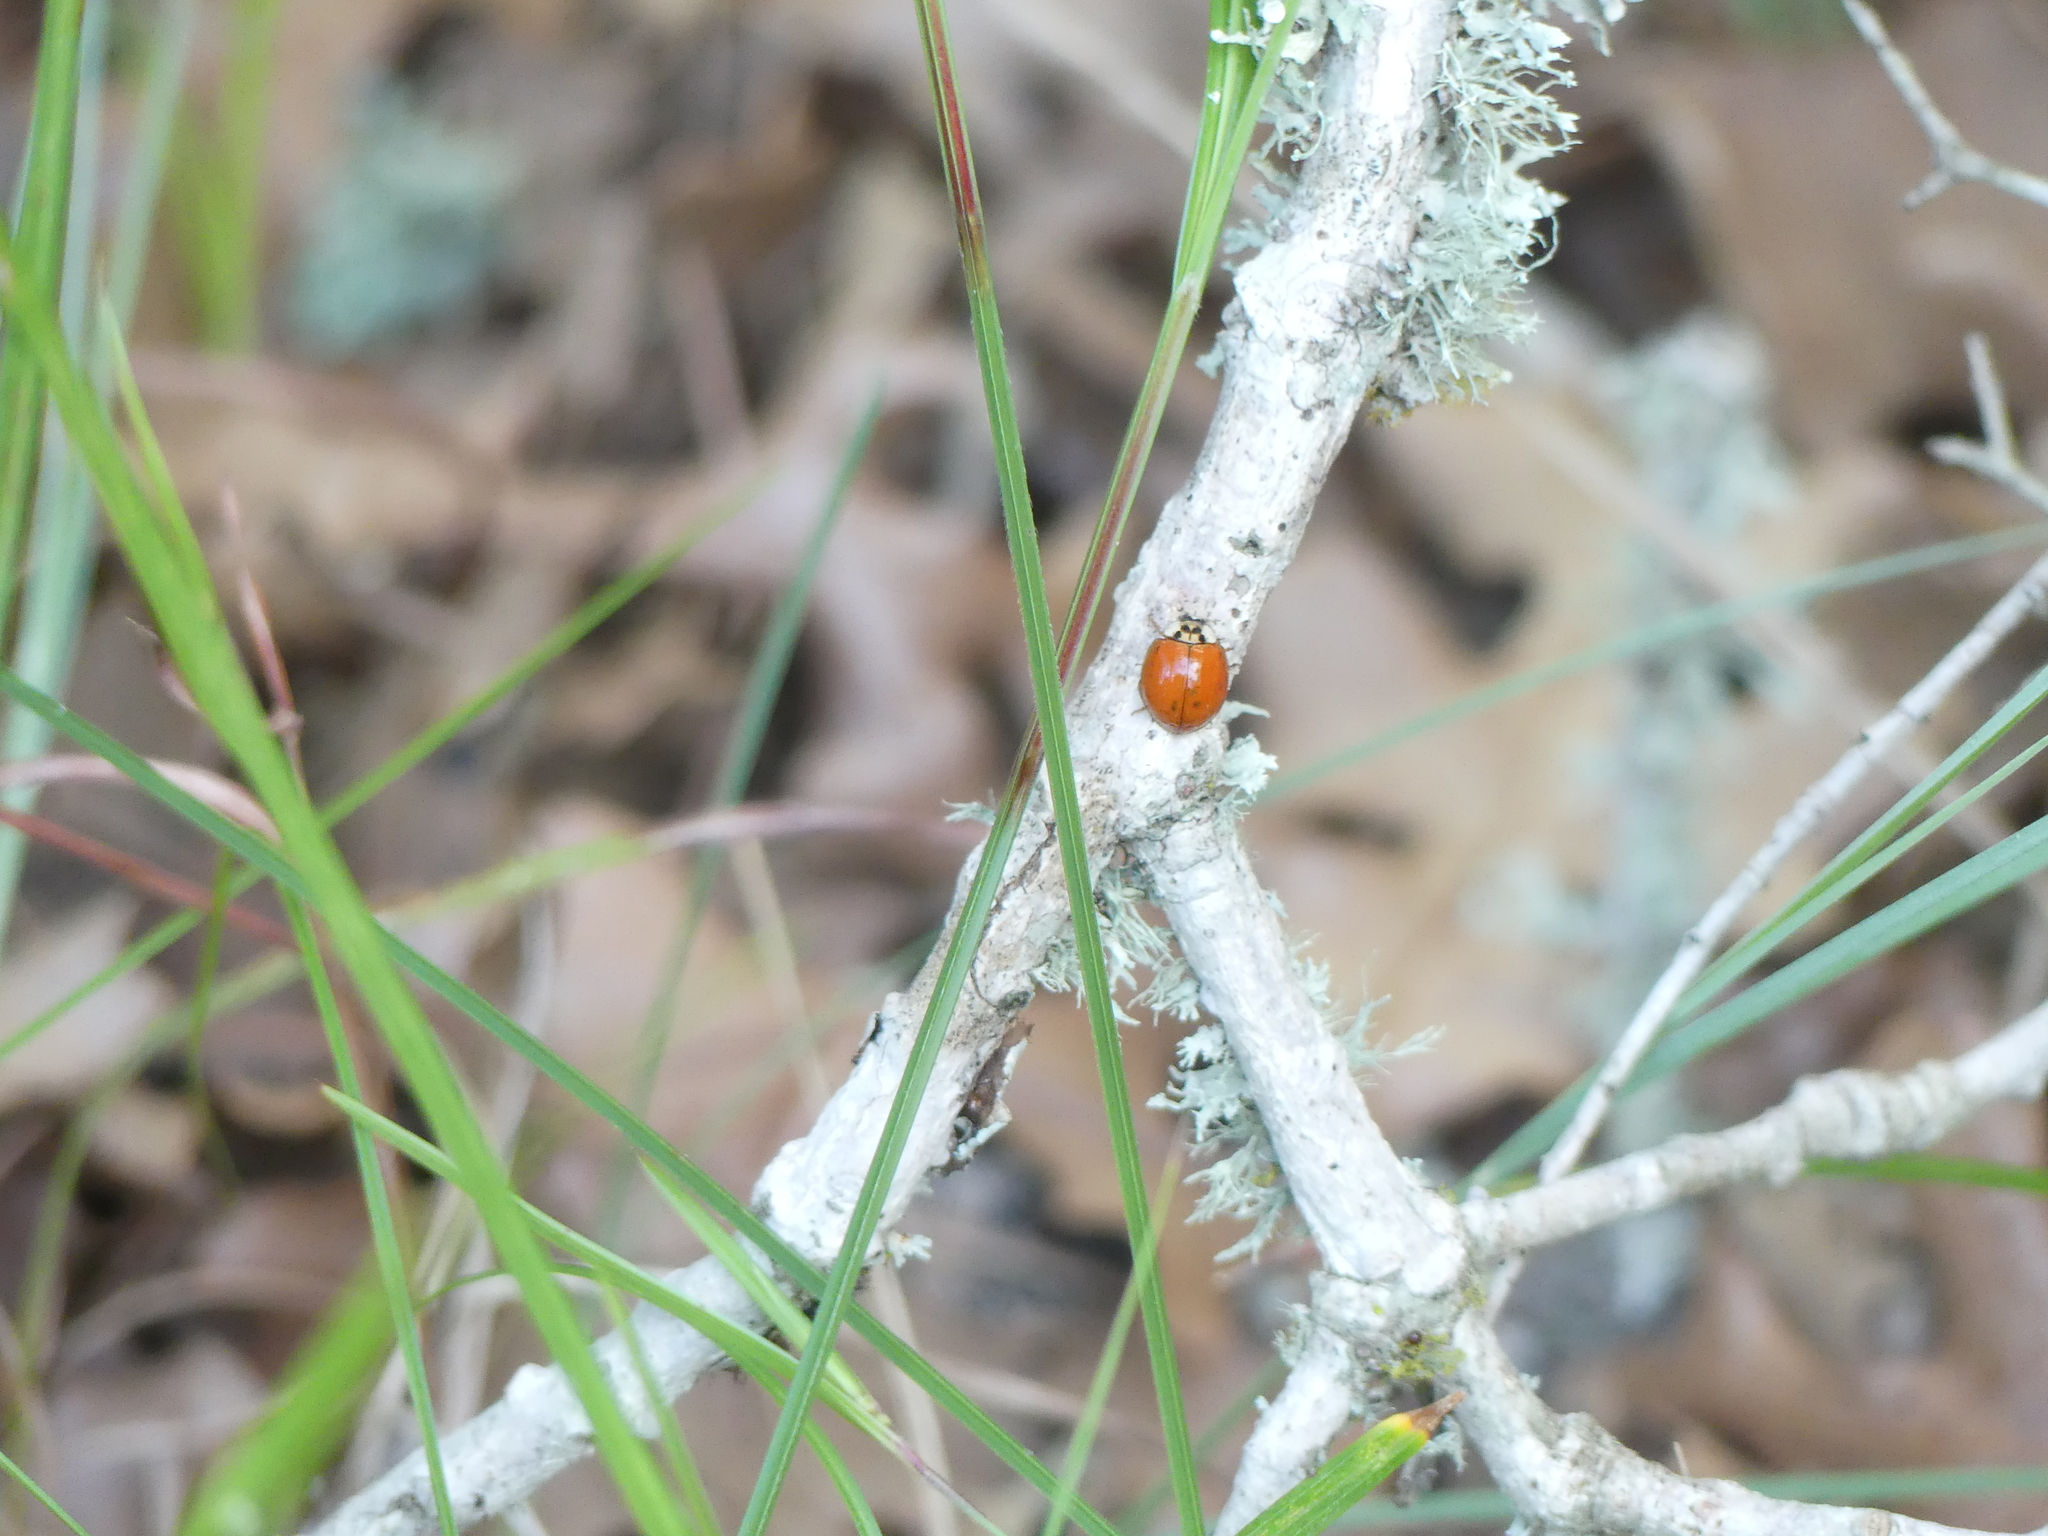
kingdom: Animalia
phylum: Arthropoda
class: Insecta
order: Coleoptera
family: Coccinellidae
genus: Harmonia
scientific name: Harmonia axyridis
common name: Harlequin ladybird
